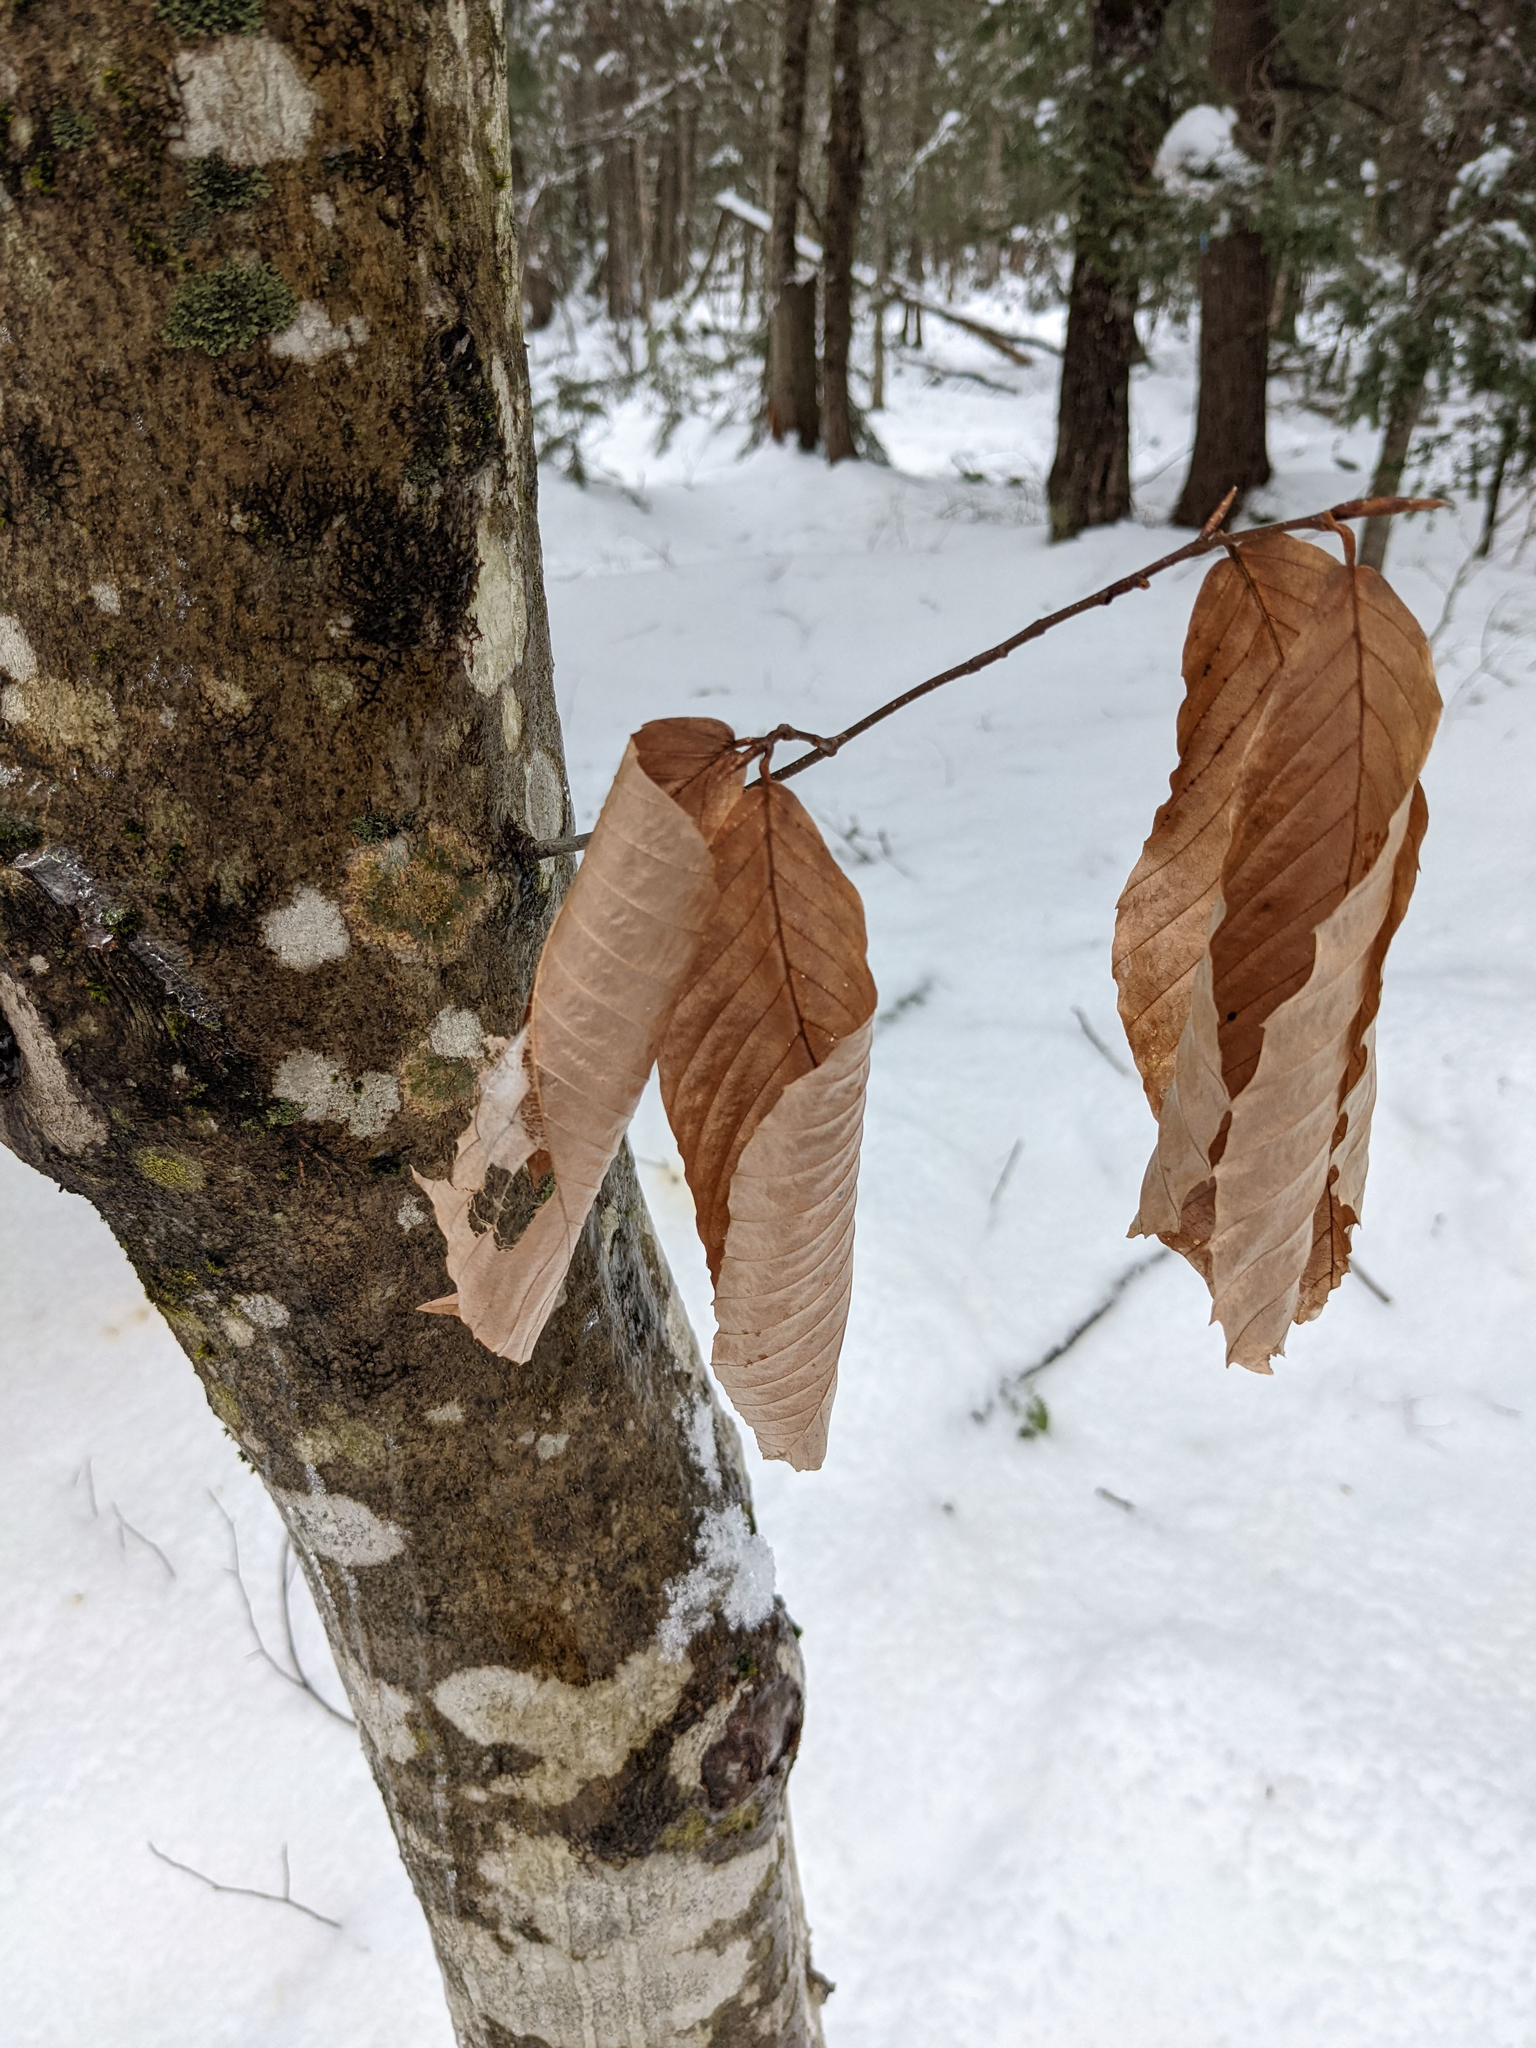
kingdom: Plantae
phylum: Tracheophyta
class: Magnoliopsida
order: Fagales
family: Fagaceae
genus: Fagus
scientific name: Fagus grandifolia
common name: American beech
